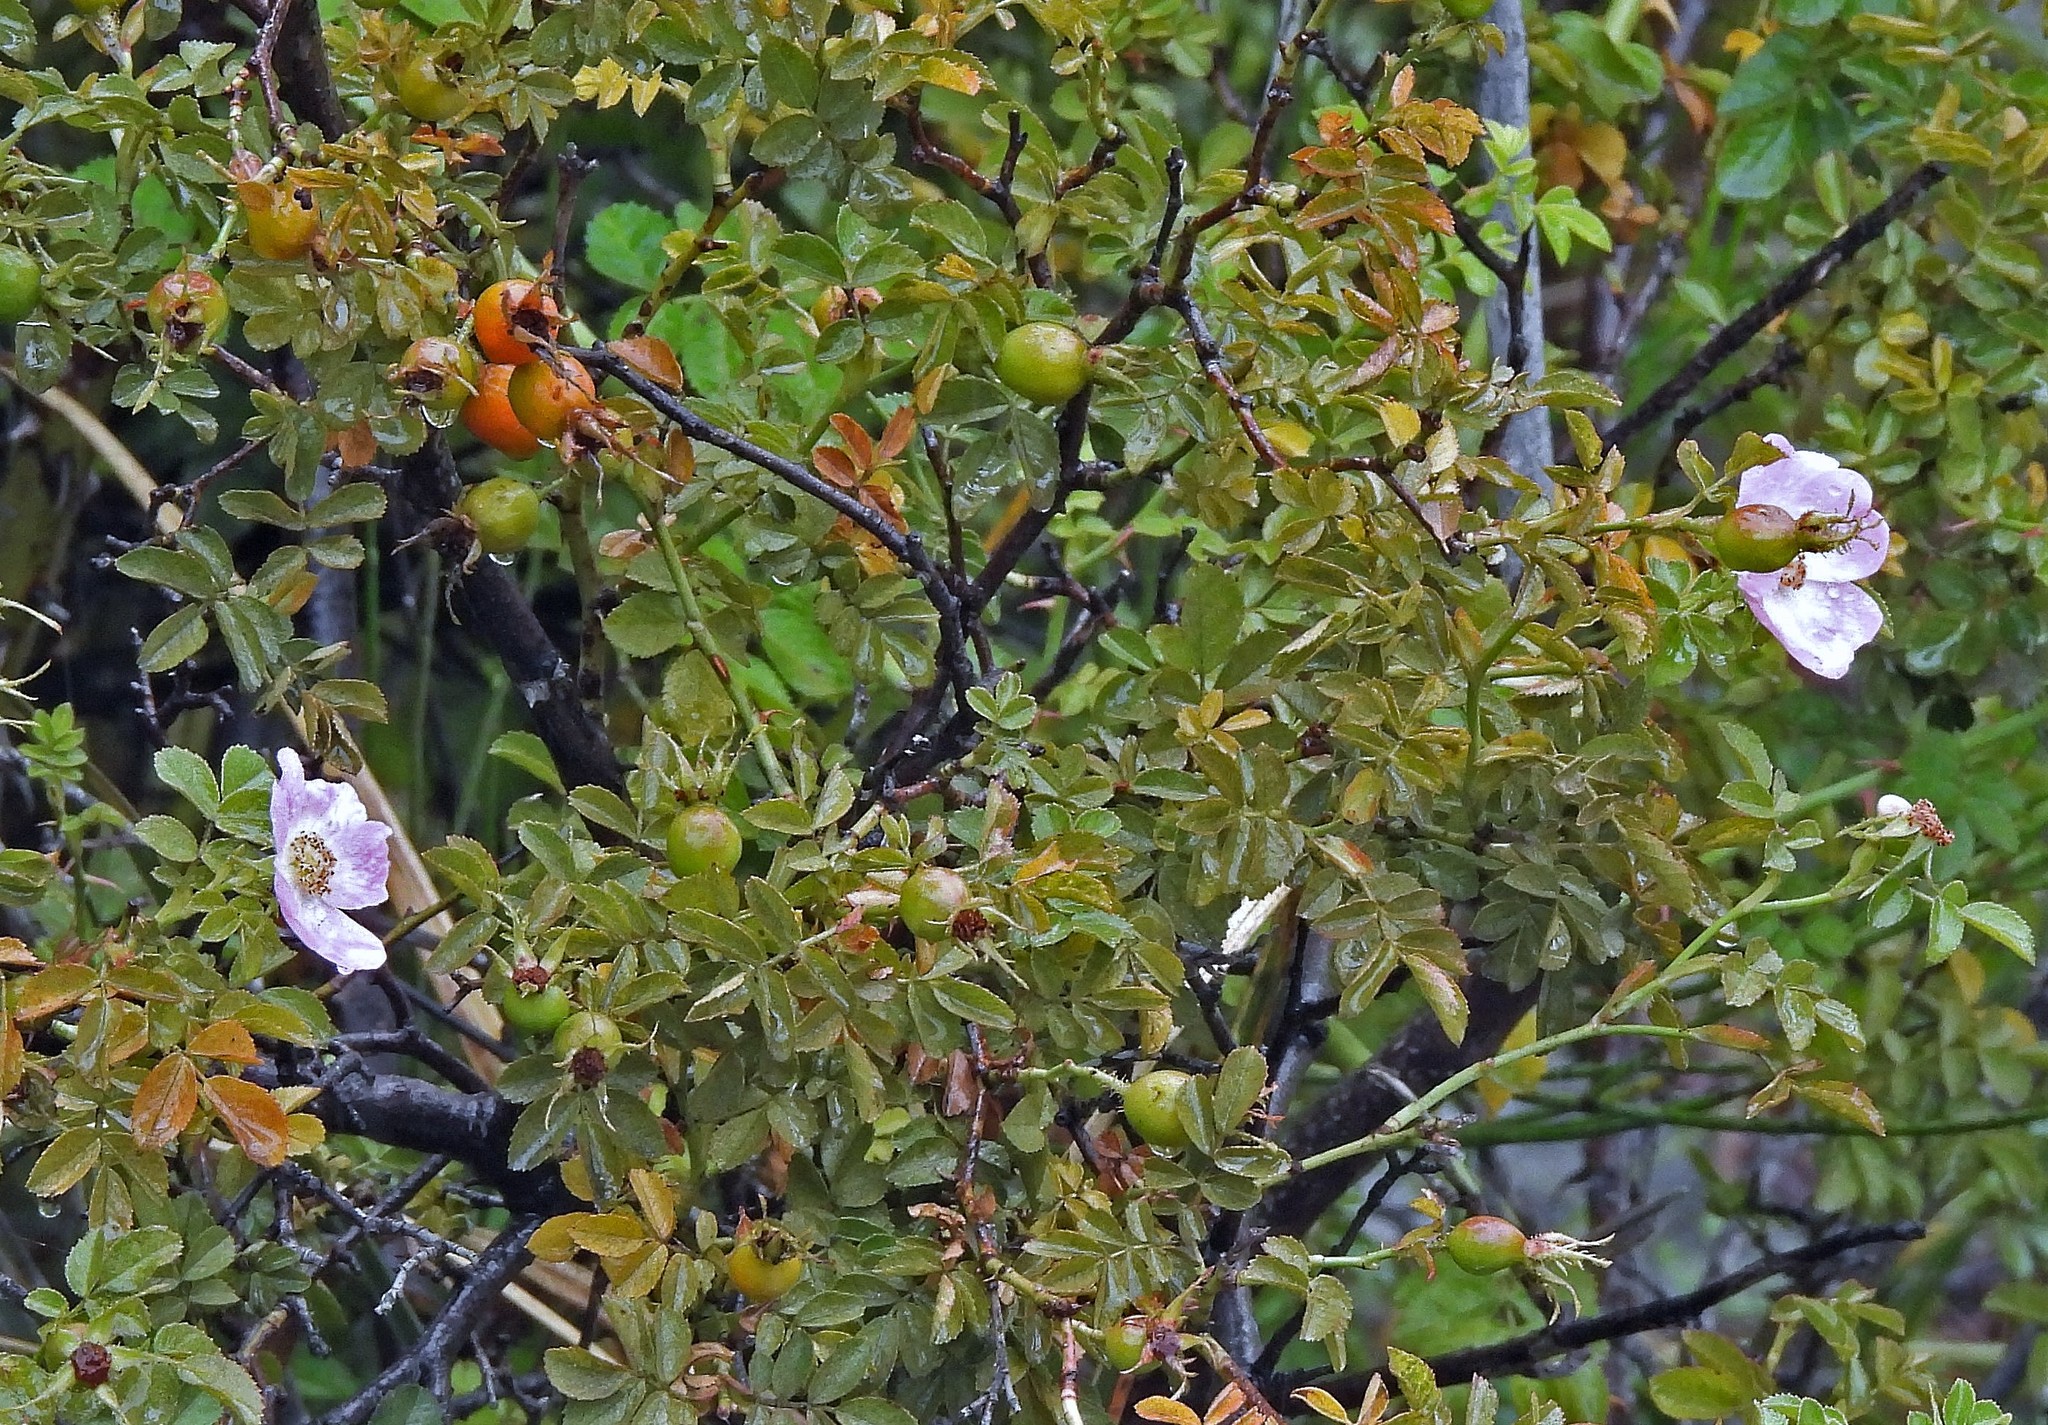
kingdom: Plantae
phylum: Tracheophyta
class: Magnoliopsida
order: Rosales
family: Rosaceae
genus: Rosa
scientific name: Rosa rubiginosa
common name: Sweet-briar
